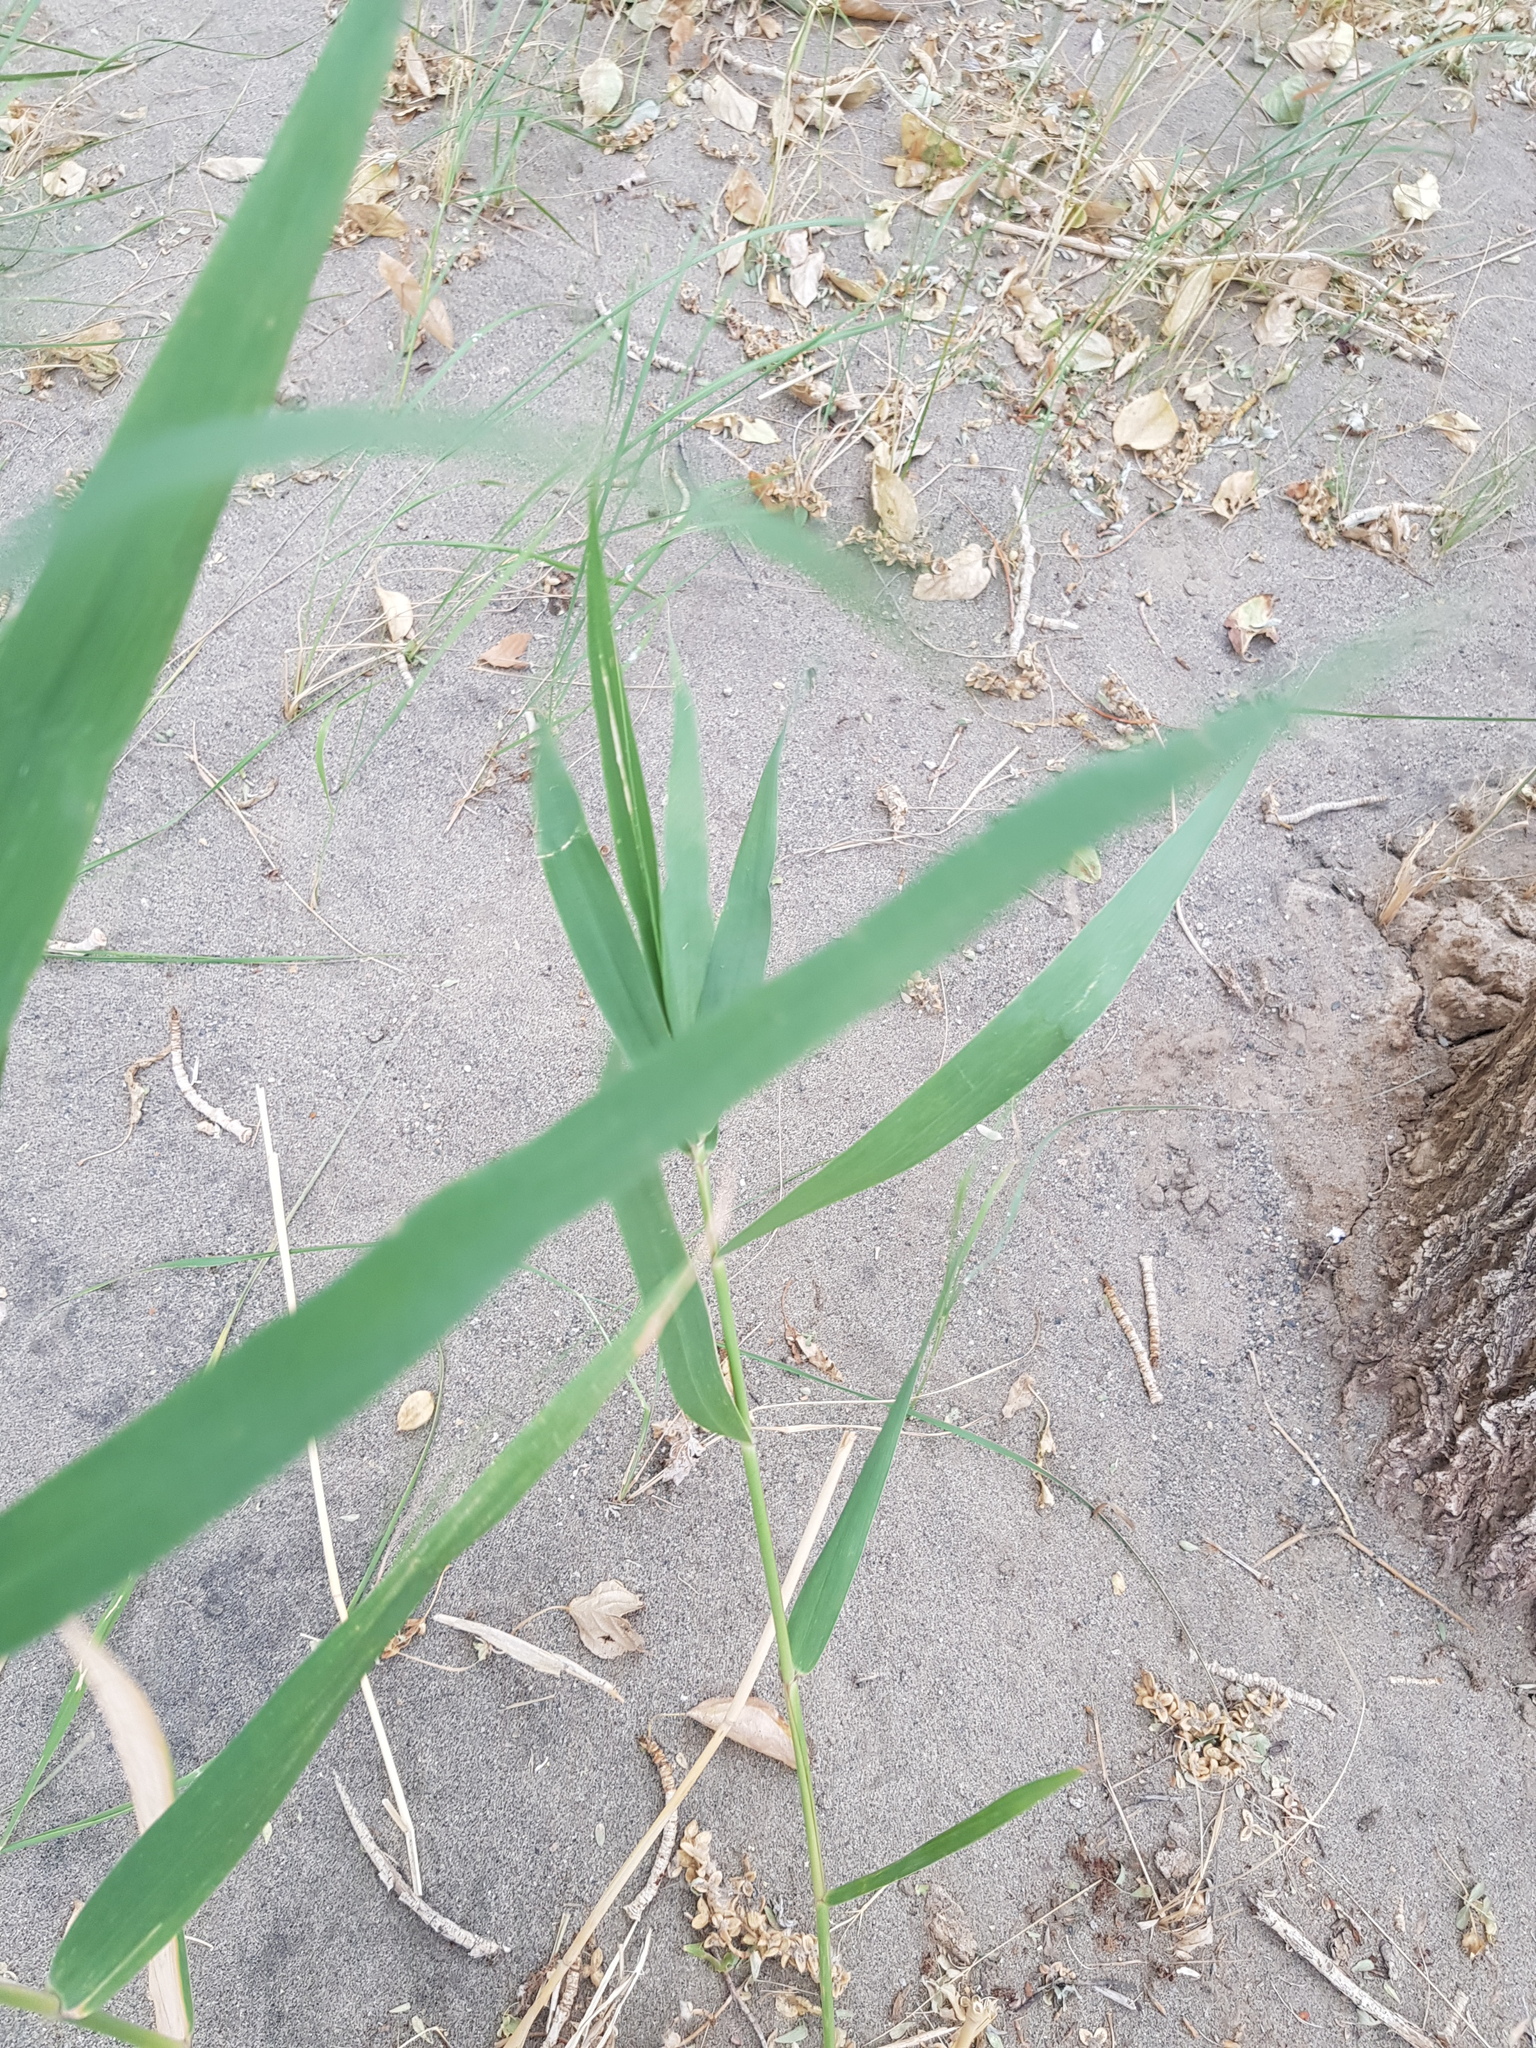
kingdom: Plantae
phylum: Tracheophyta
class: Liliopsida
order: Poales
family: Poaceae
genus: Phragmites
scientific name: Phragmites australis
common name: Common reed
